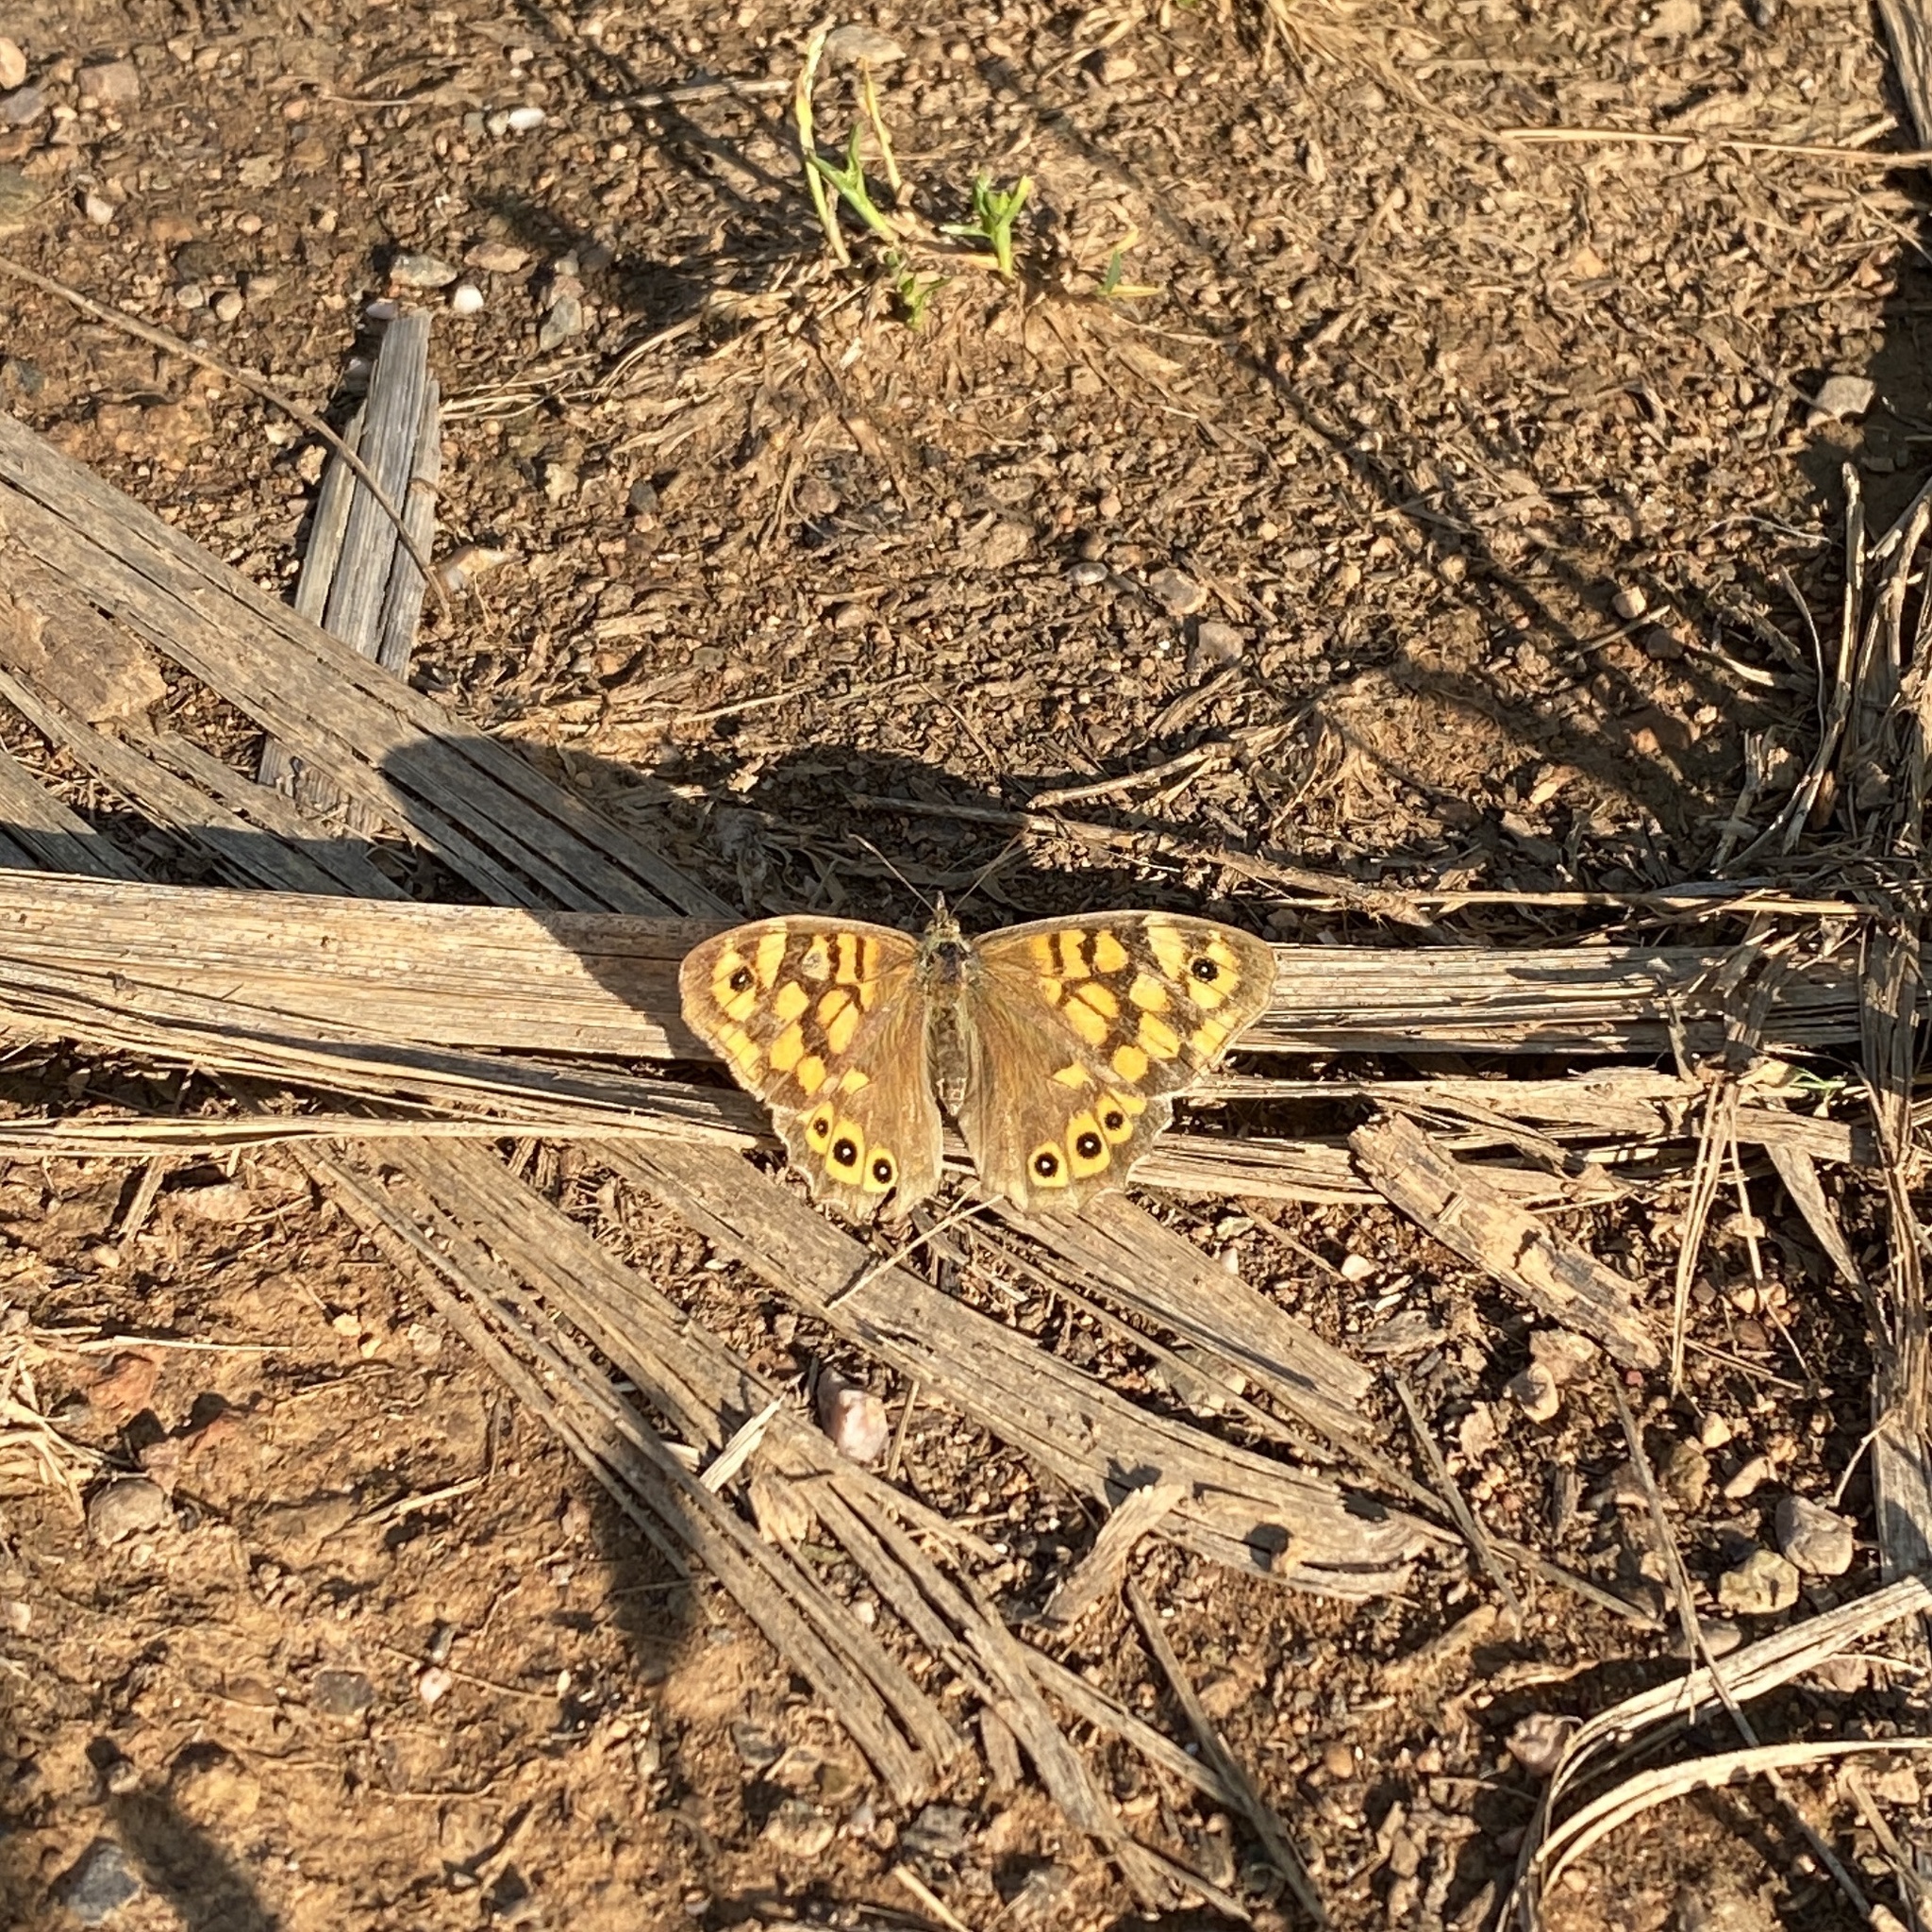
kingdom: Animalia
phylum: Arthropoda
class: Insecta
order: Lepidoptera
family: Nymphalidae
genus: Pararge
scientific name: Pararge aegeria
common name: Speckled wood
